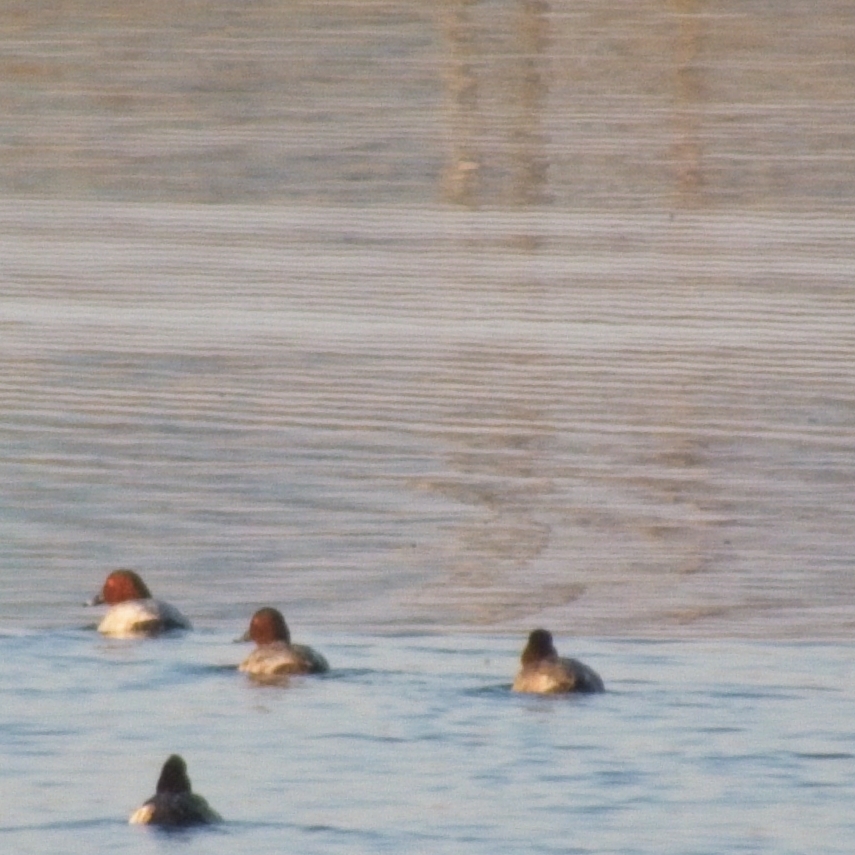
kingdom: Animalia
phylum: Chordata
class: Aves
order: Anseriformes
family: Anatidae
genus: Aythya
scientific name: Aythya ferina
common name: Common pochard
